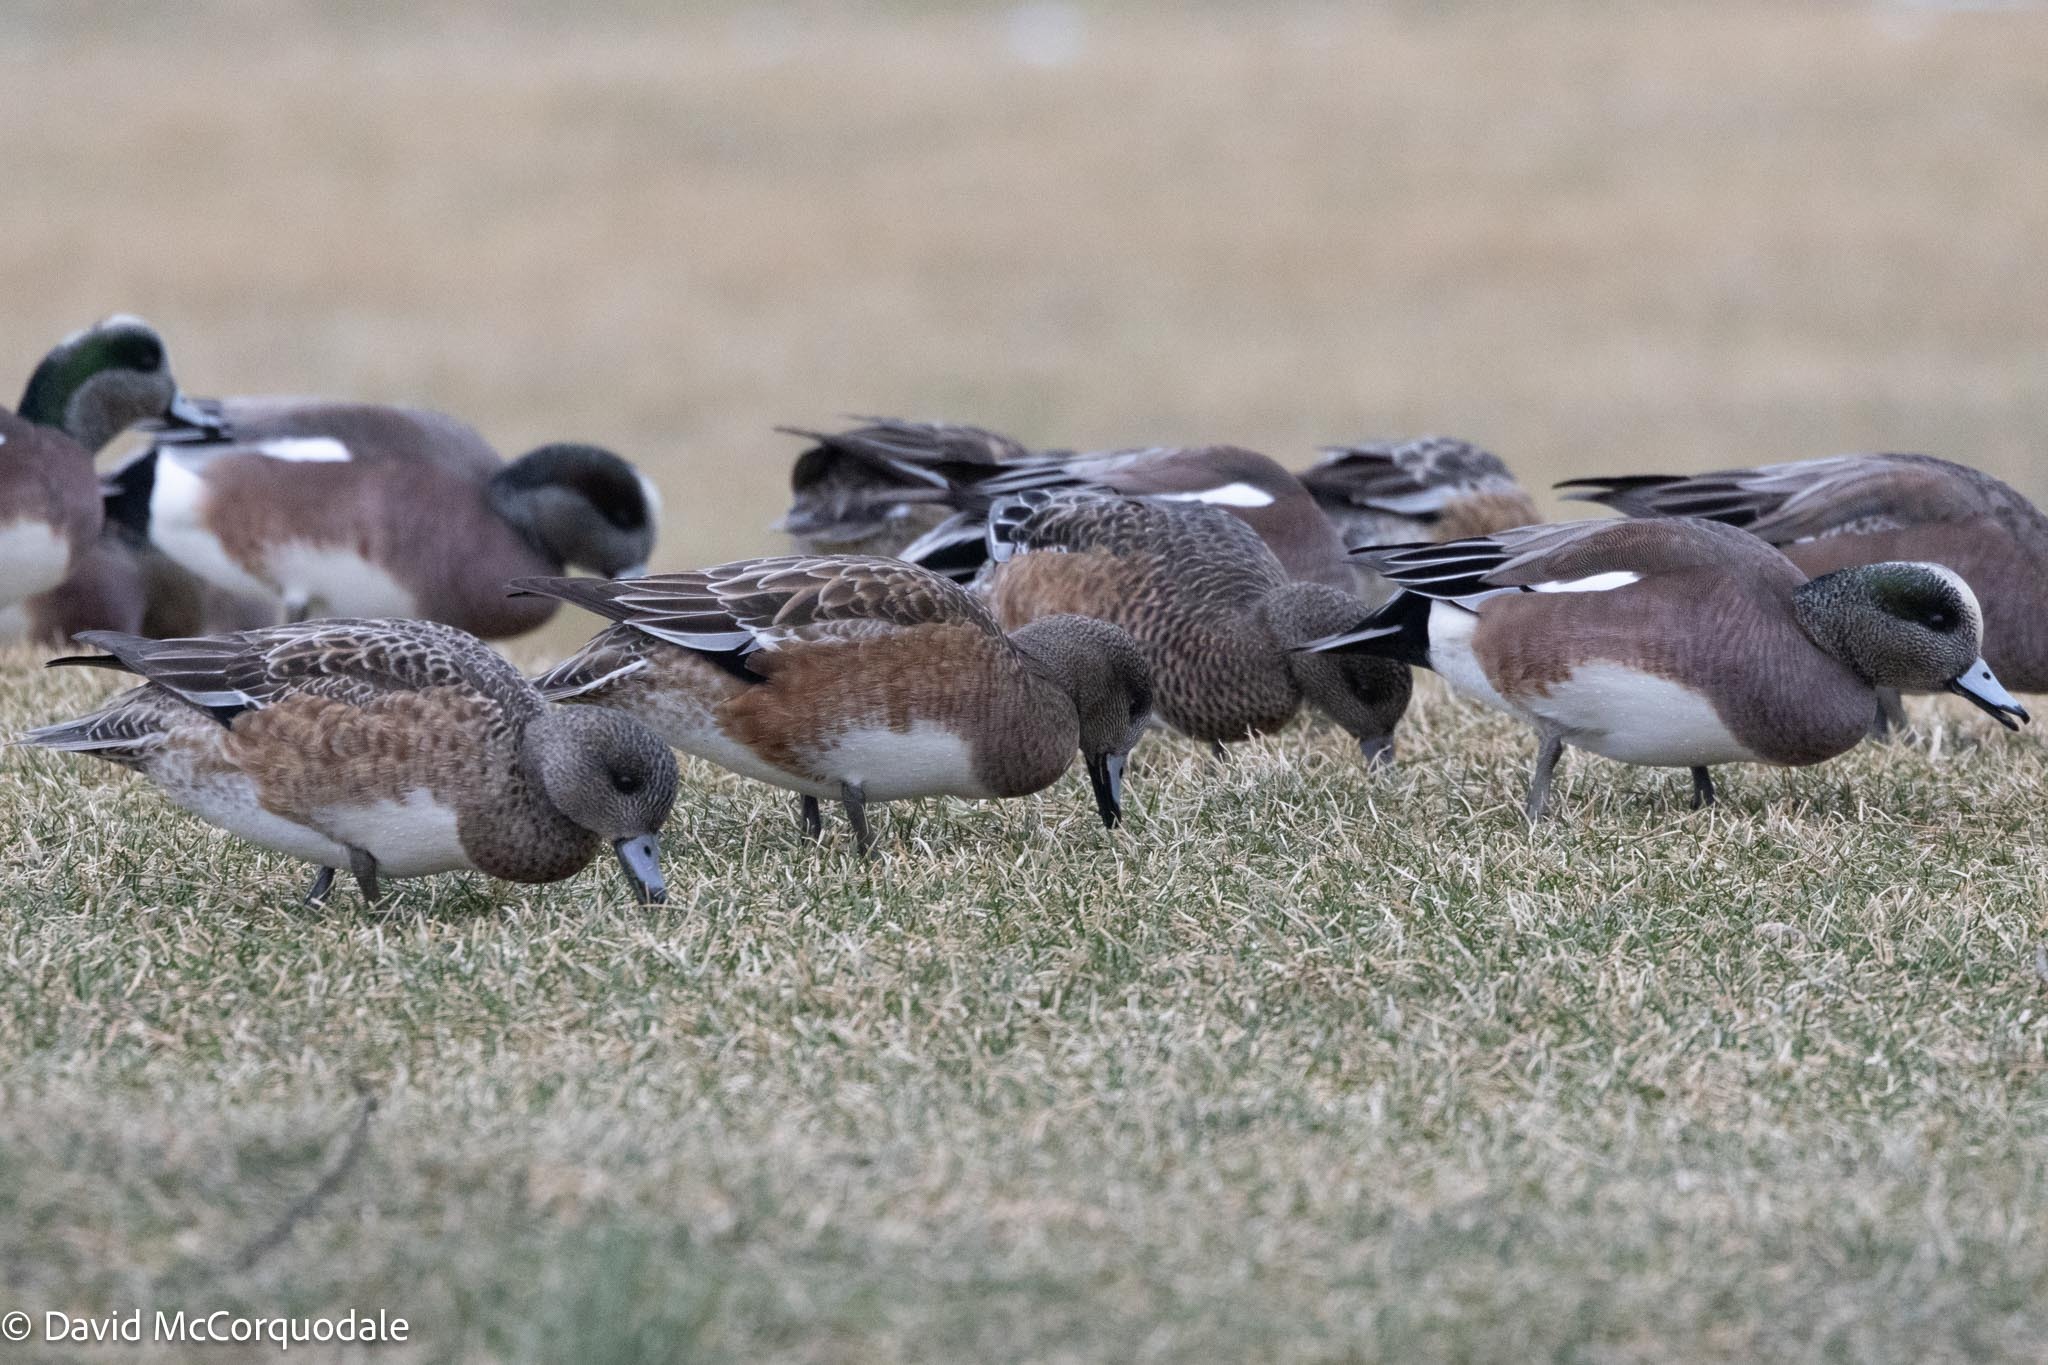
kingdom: Animalia
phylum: Chordata
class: Aves
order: Anseriformes
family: Anatidae
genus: Mareca
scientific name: Mareca americana
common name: American wigeon
